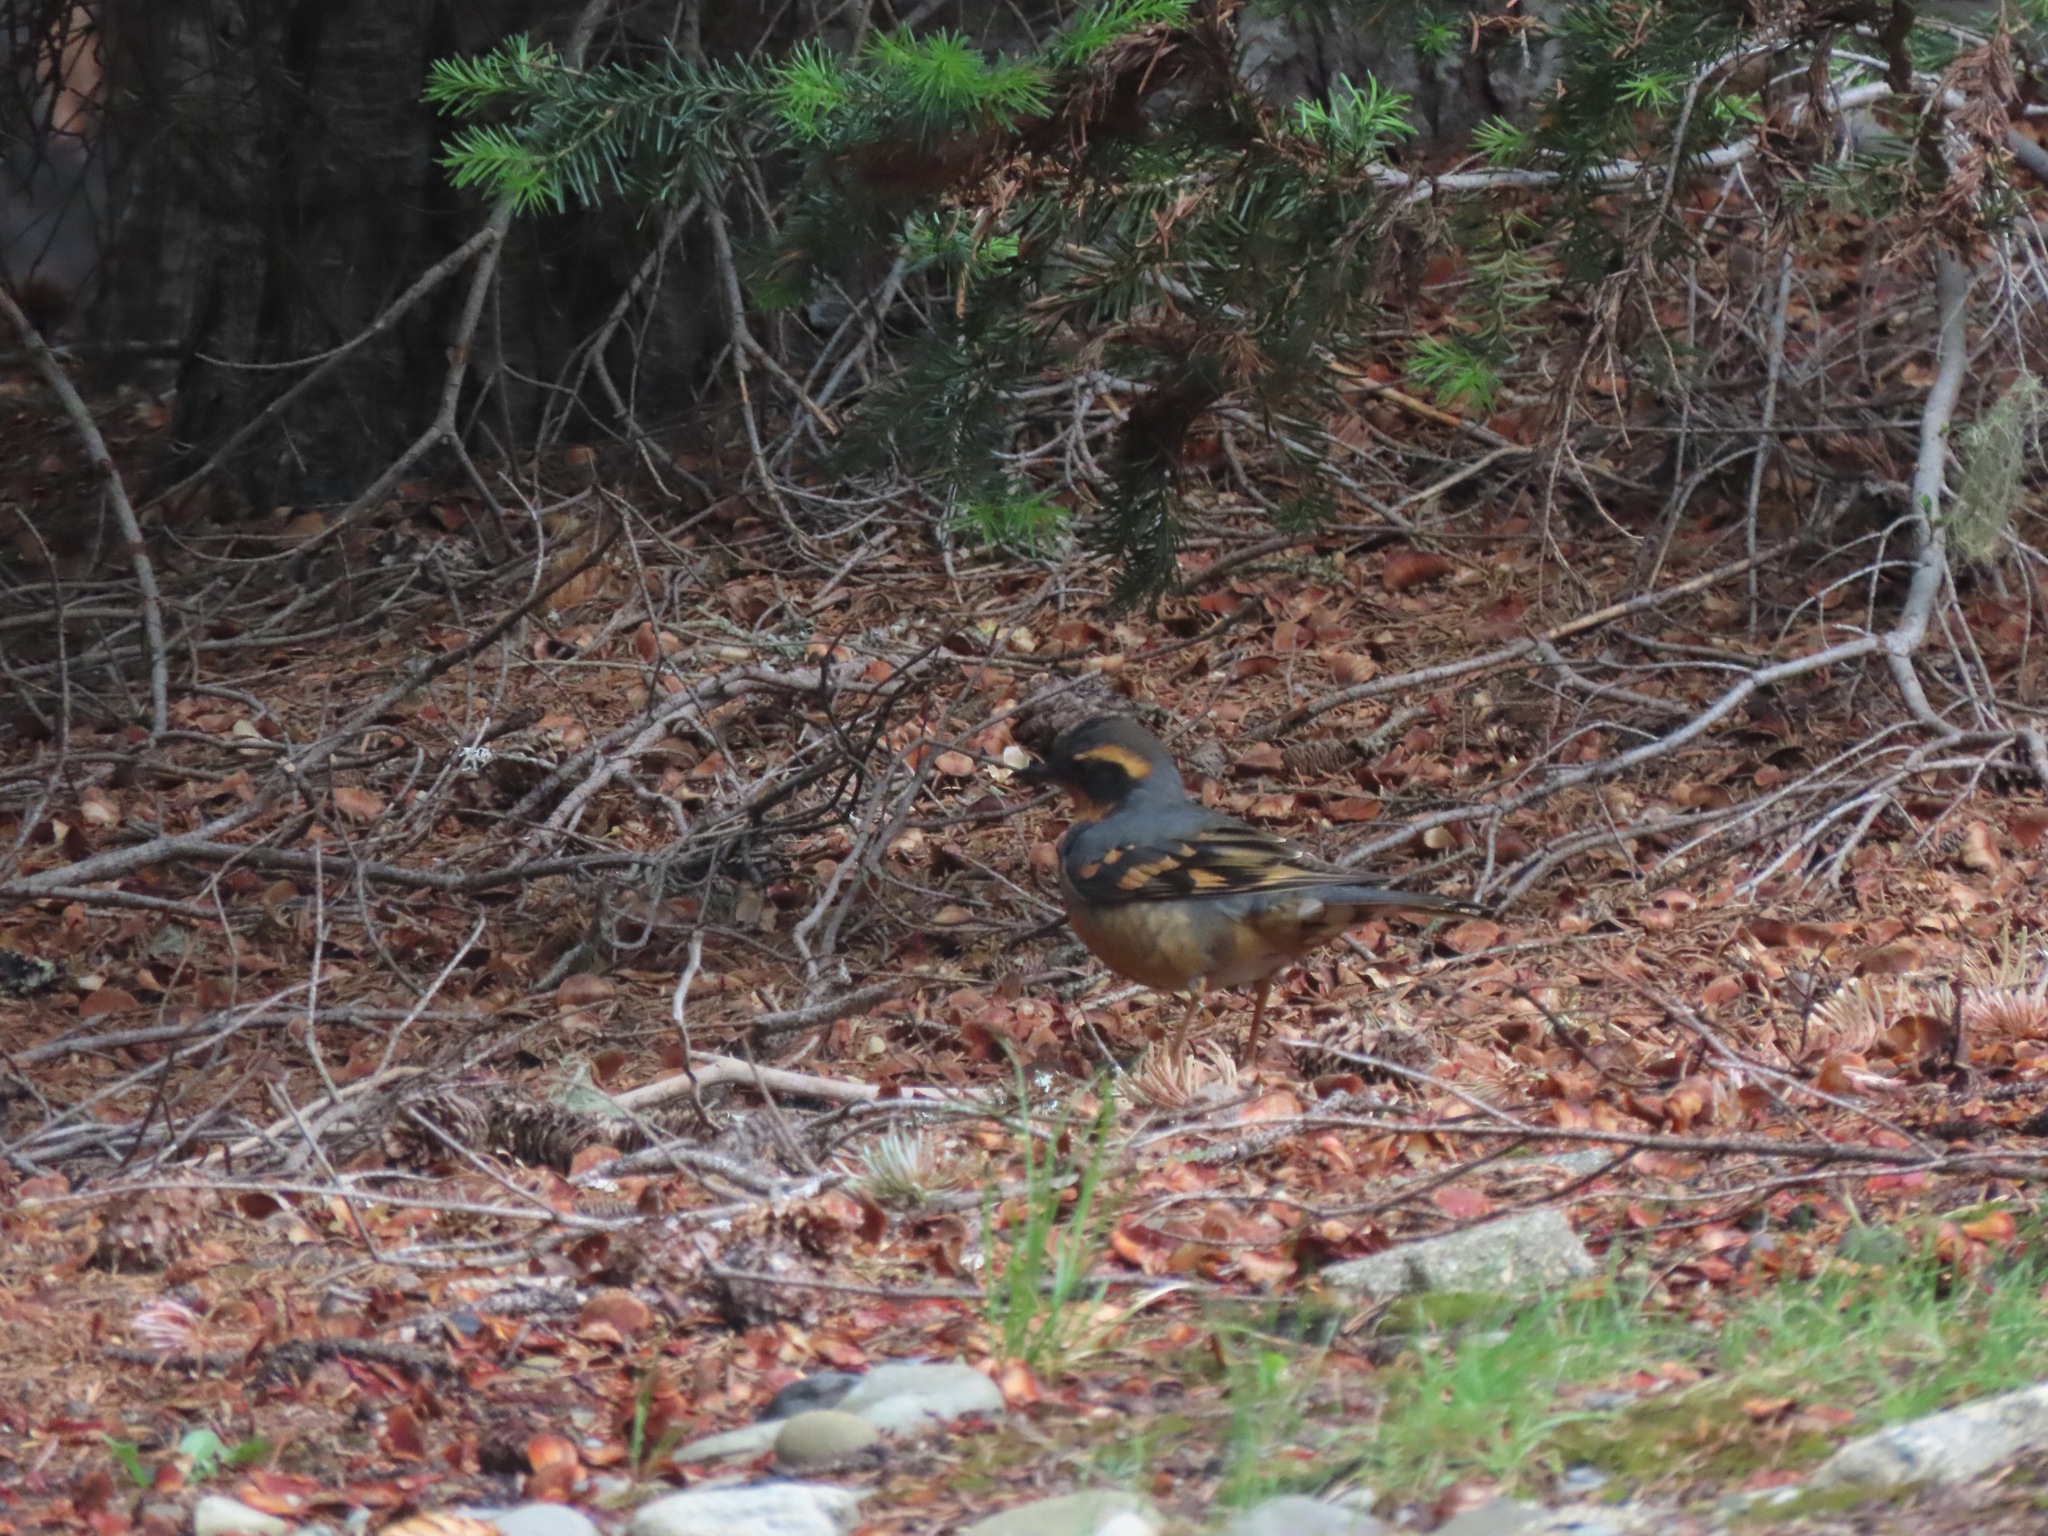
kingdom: Animalia
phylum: Chordata
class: Aves
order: Passeriformes
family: Turdidae
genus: Ixoreus
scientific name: Ixoreus naevius
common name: Varied thrush
